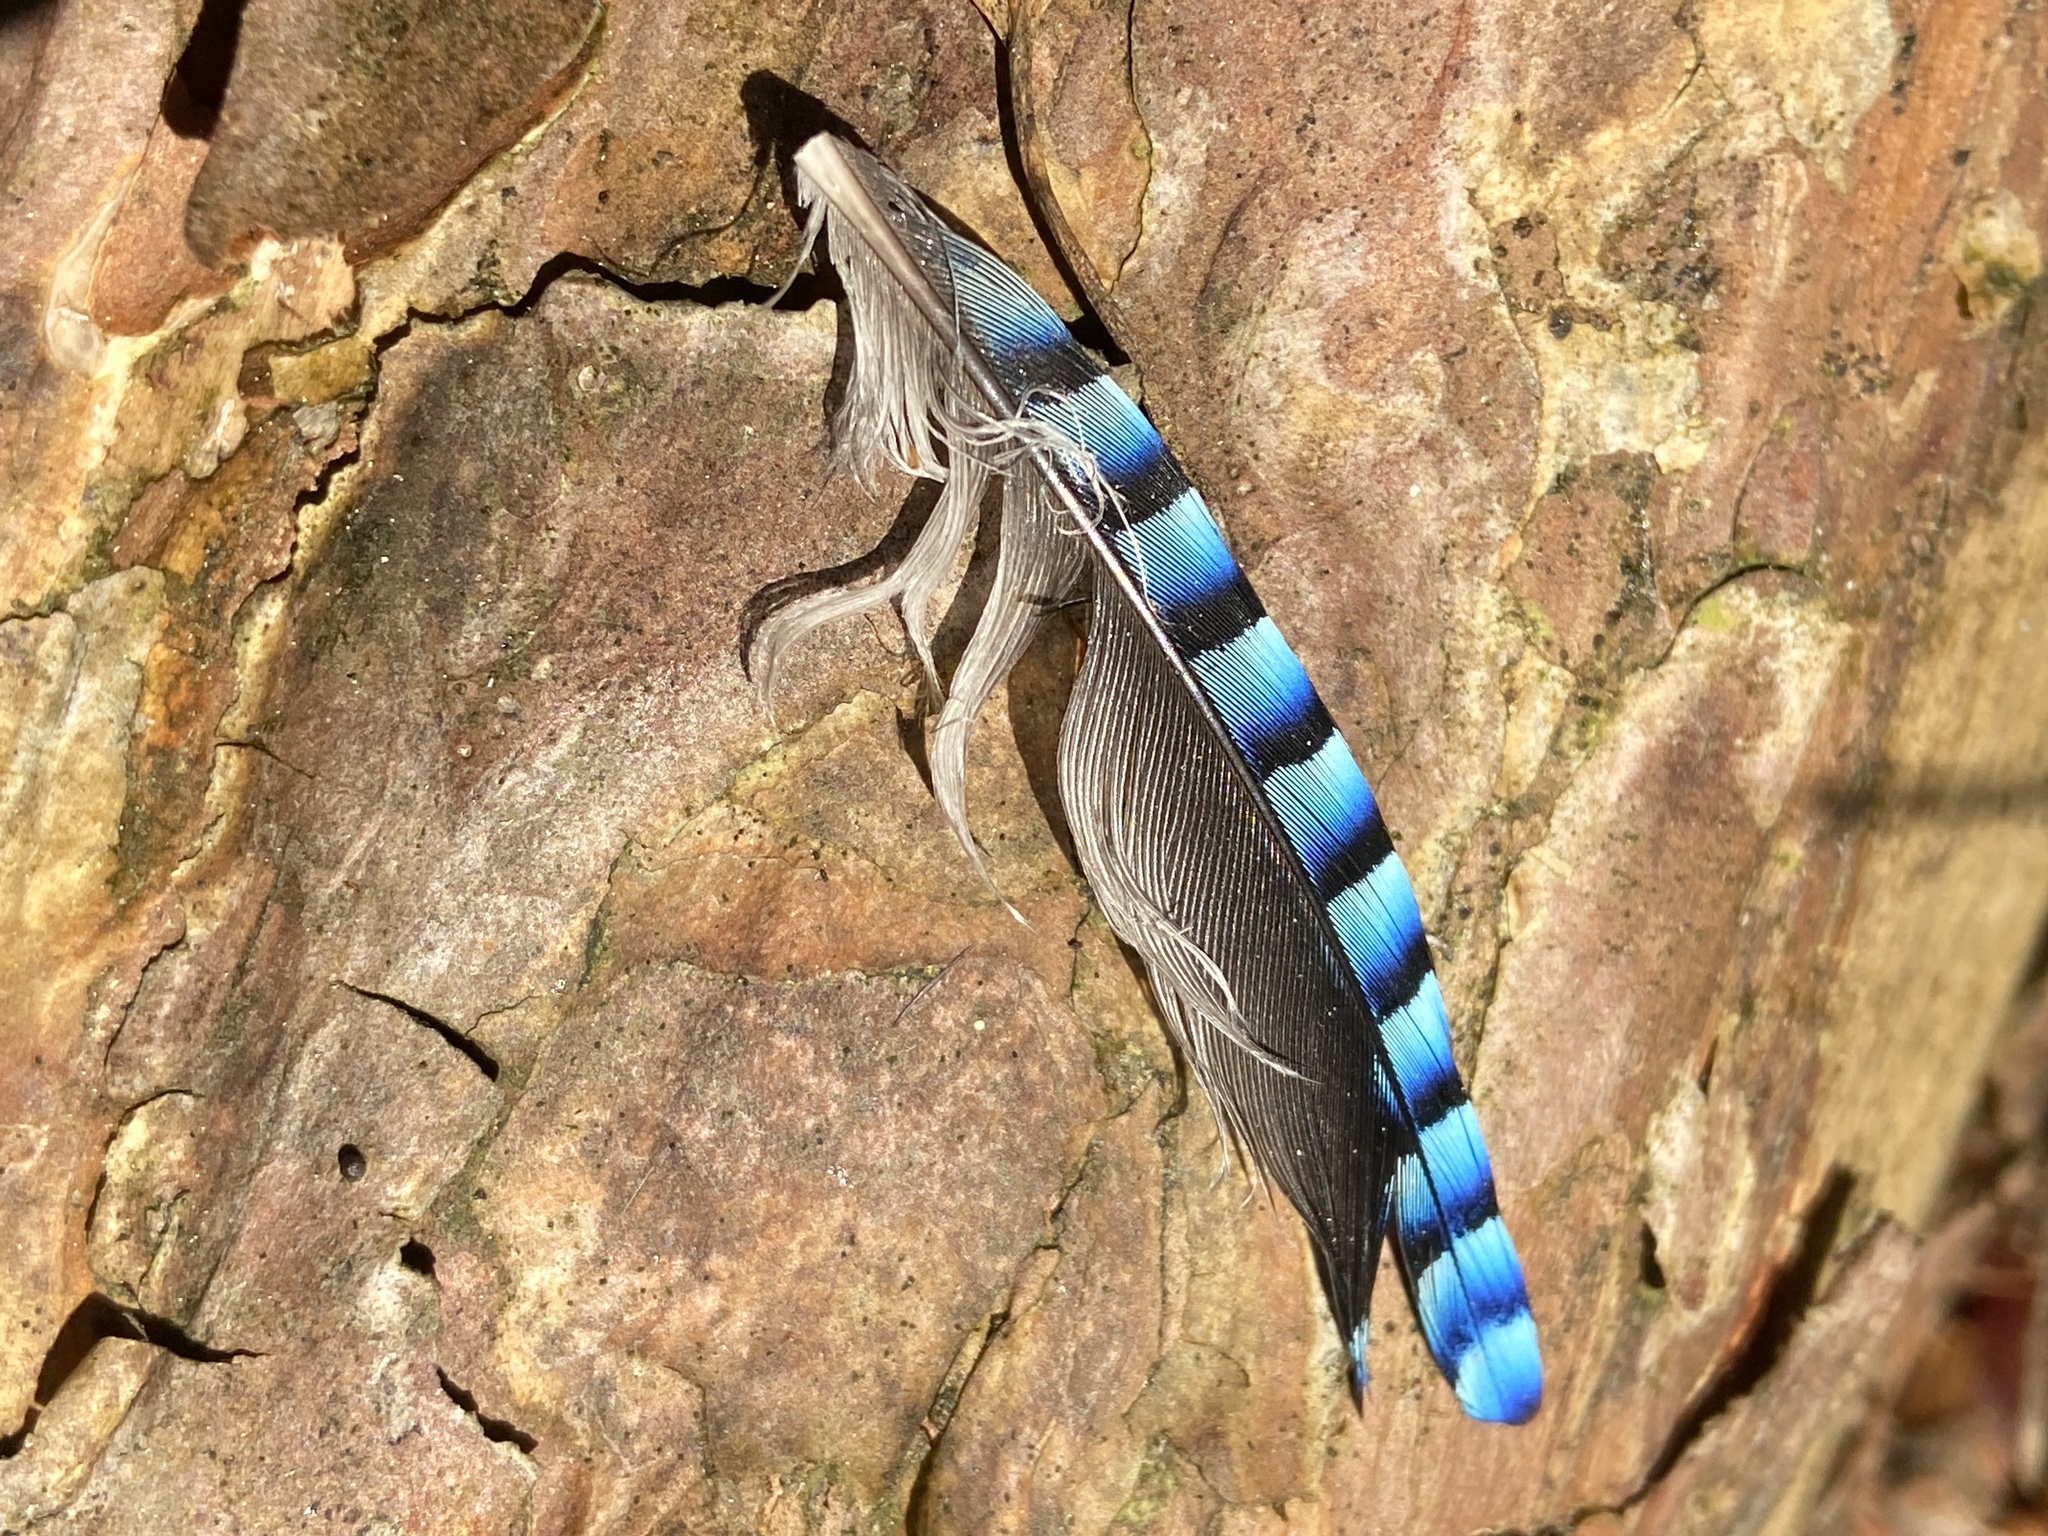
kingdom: Animalia
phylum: Chordata
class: Aves
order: Passeriformes
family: Corvidae
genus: Garrulus
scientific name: Garrulus glandarius
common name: Eurasian jay
